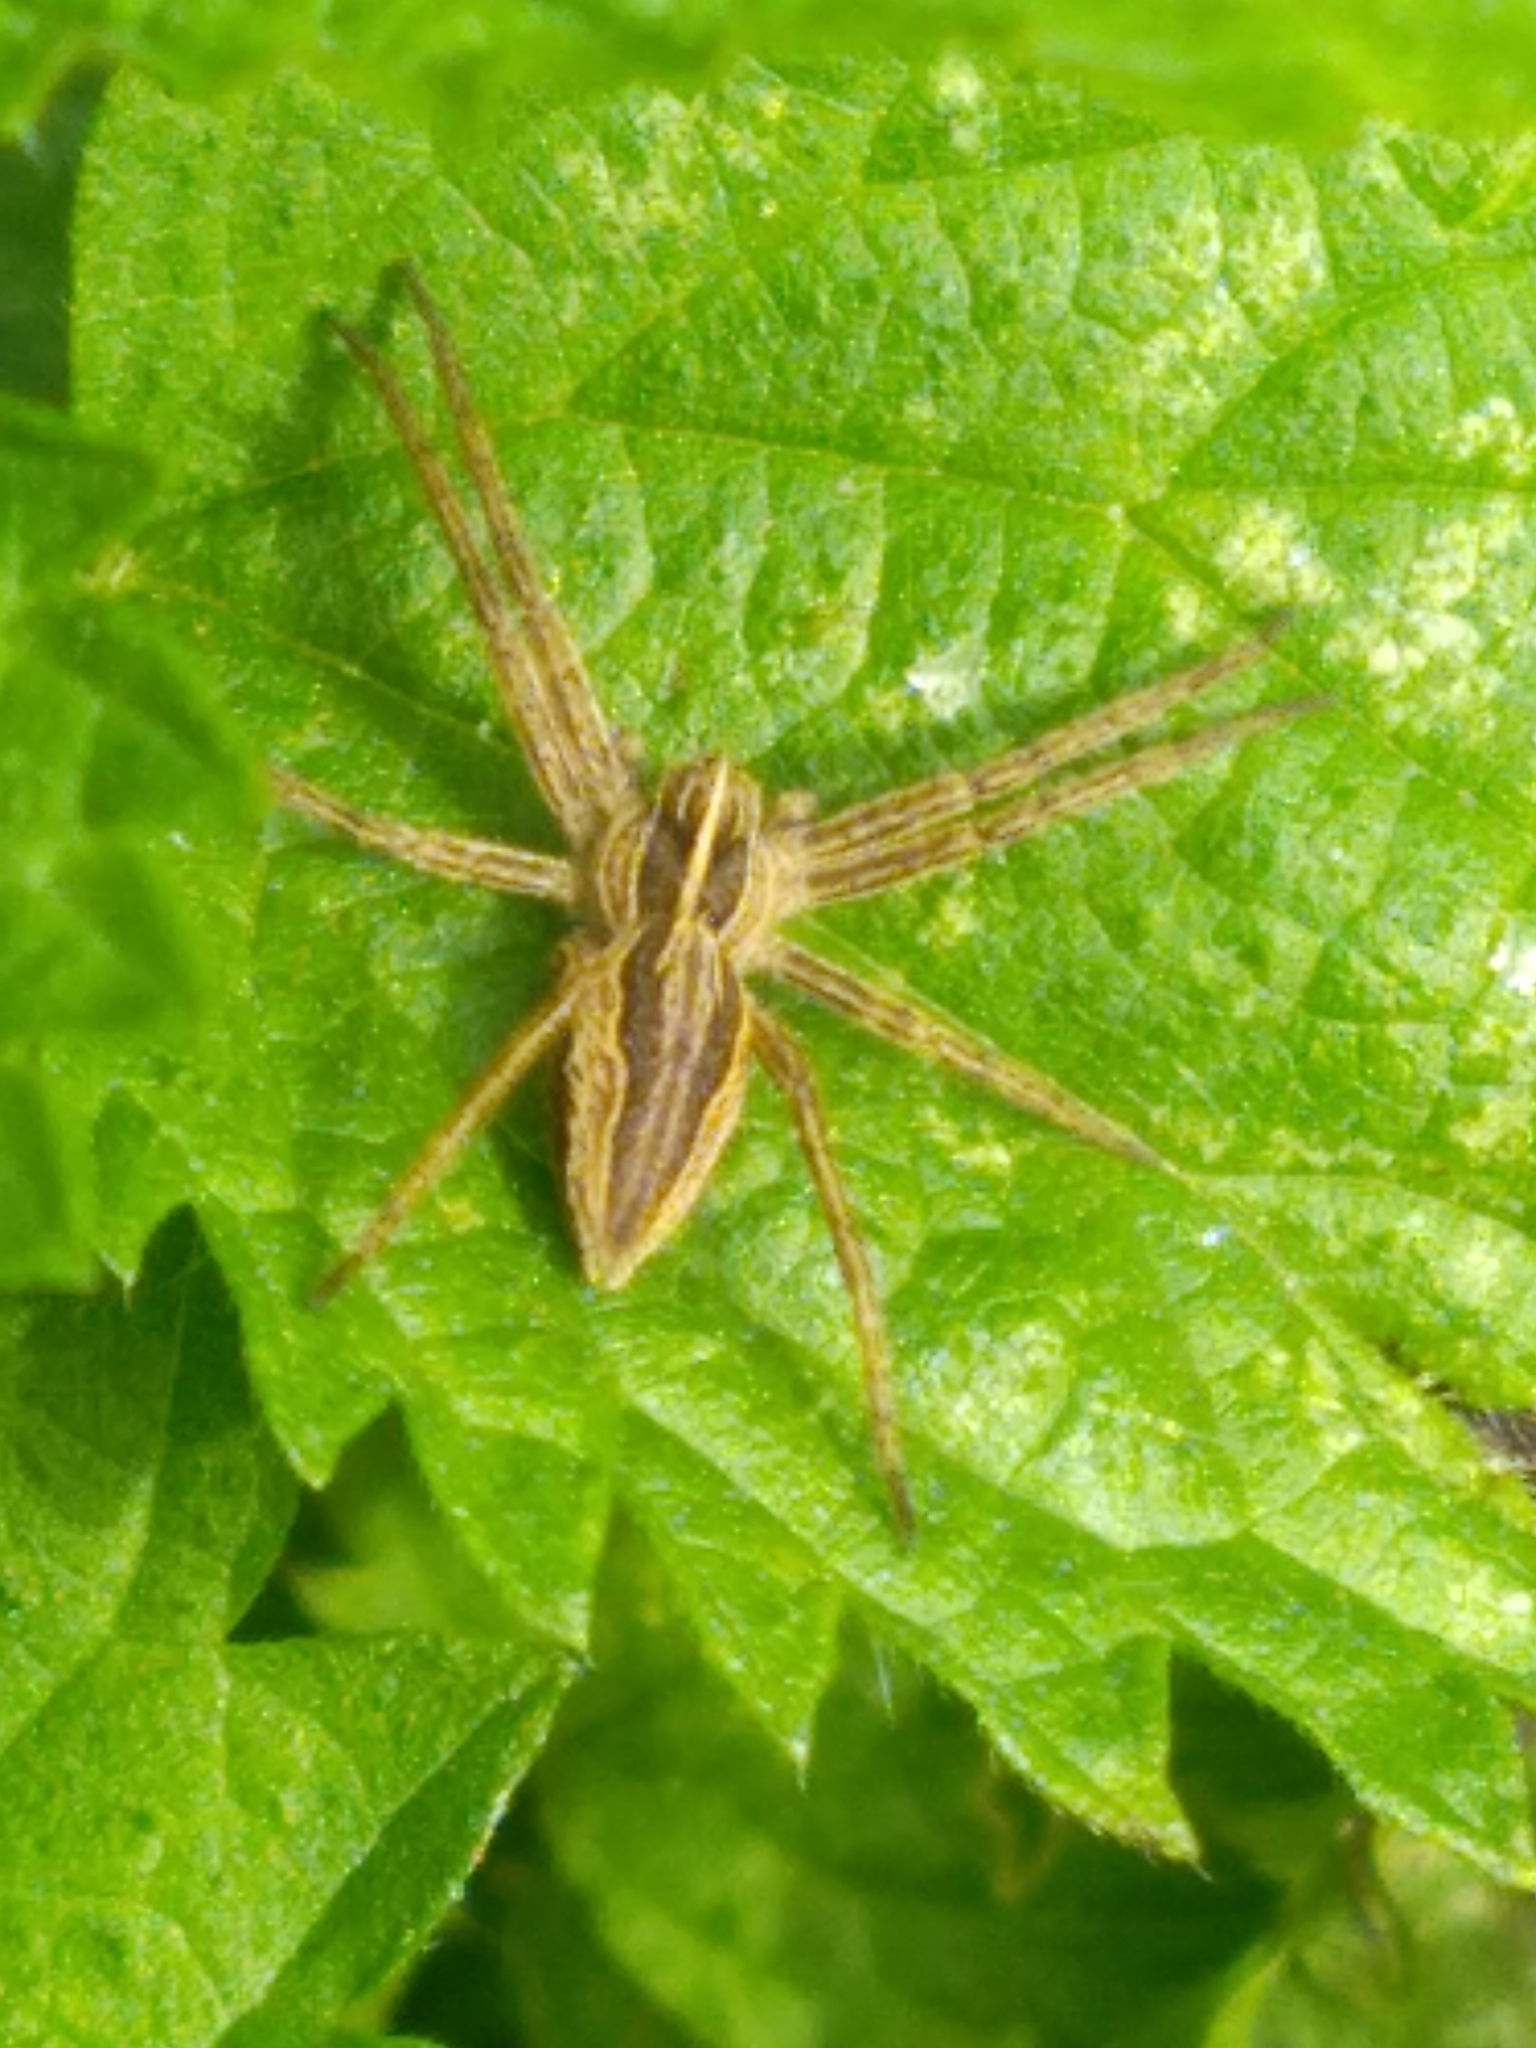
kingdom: Animalia
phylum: Arthropoda
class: Arachnida
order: Araneae
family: Pisauridae
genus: Pisaura
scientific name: Pisaura mirabilis
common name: Tent spider
